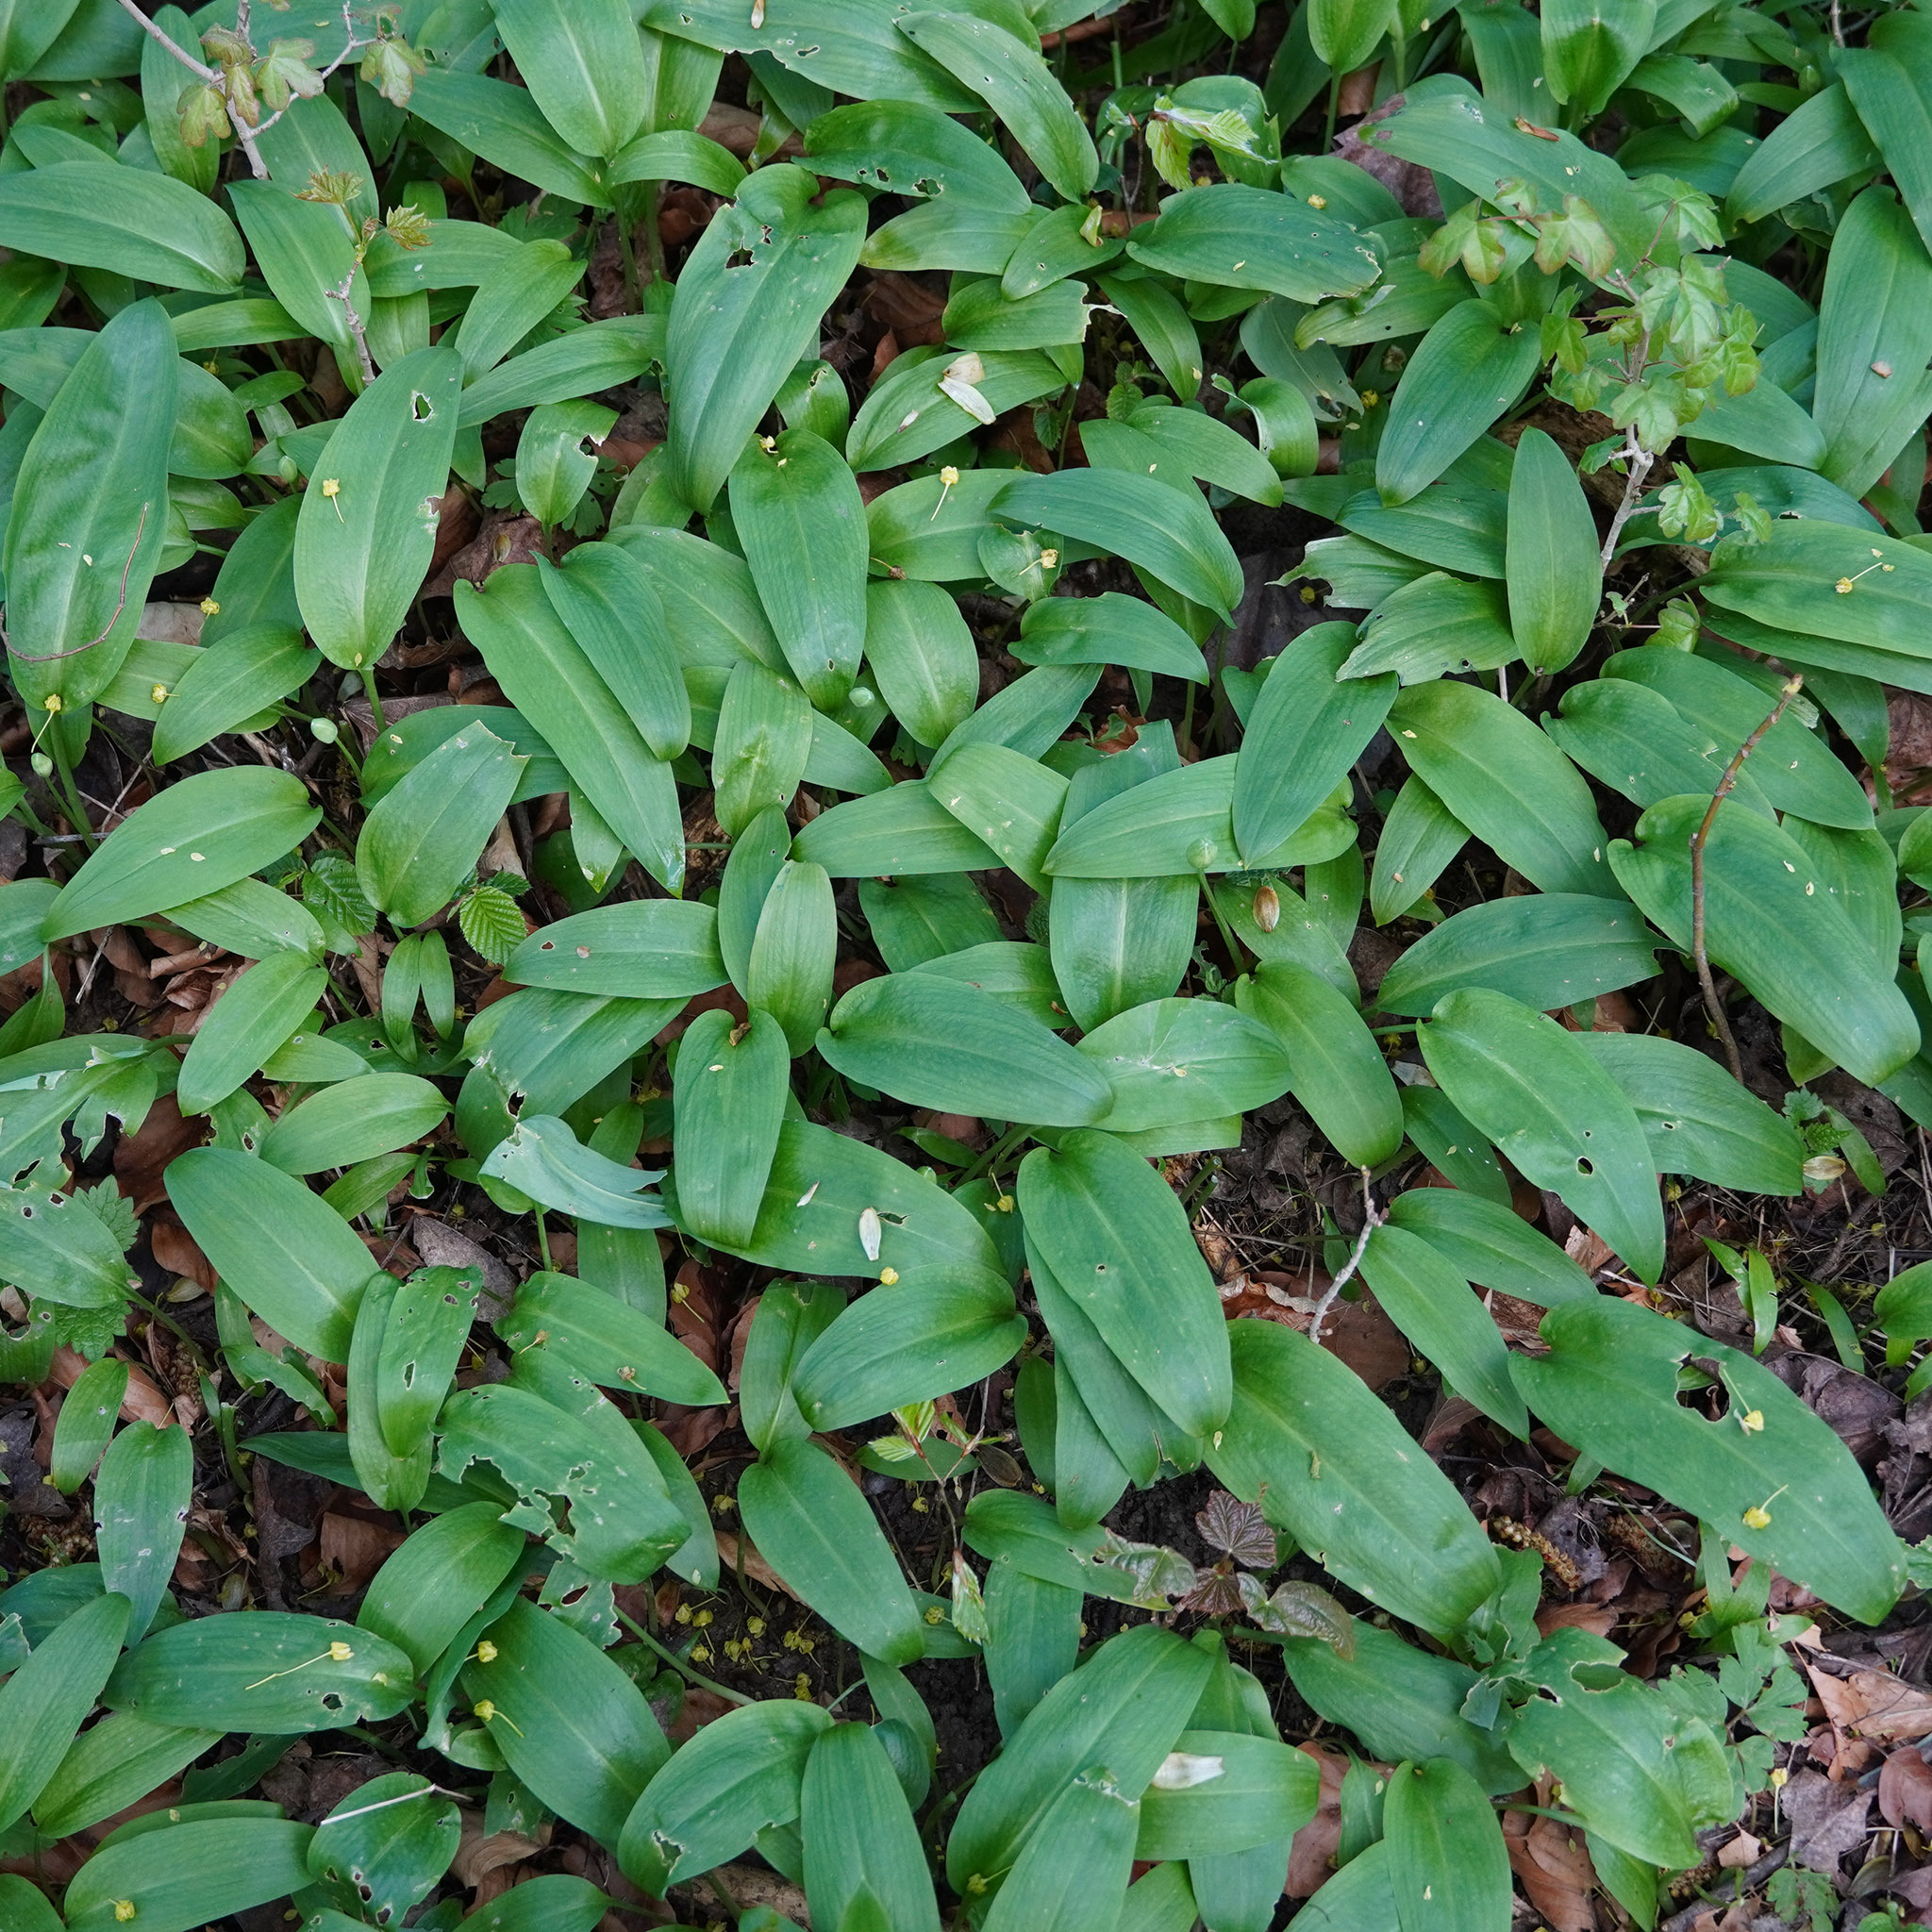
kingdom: Plantae
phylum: Tracheophyta
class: Liliopsida
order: Asparagales
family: Amaryllidaceae
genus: Allium
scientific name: Allium ursinum
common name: Ramsons
